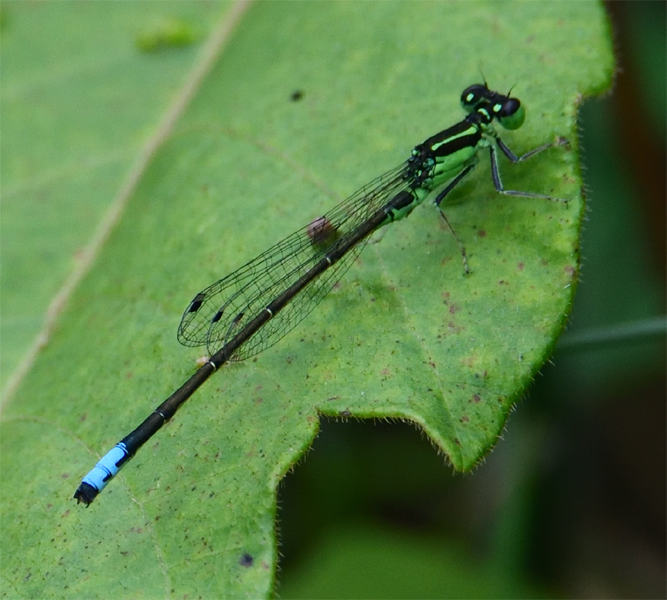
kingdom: Animalia
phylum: Arthropoda
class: Insecta
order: Odonata
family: Coenagrionidae
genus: Ischnura
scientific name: Ischnura verticalis
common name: Eastern forktail
